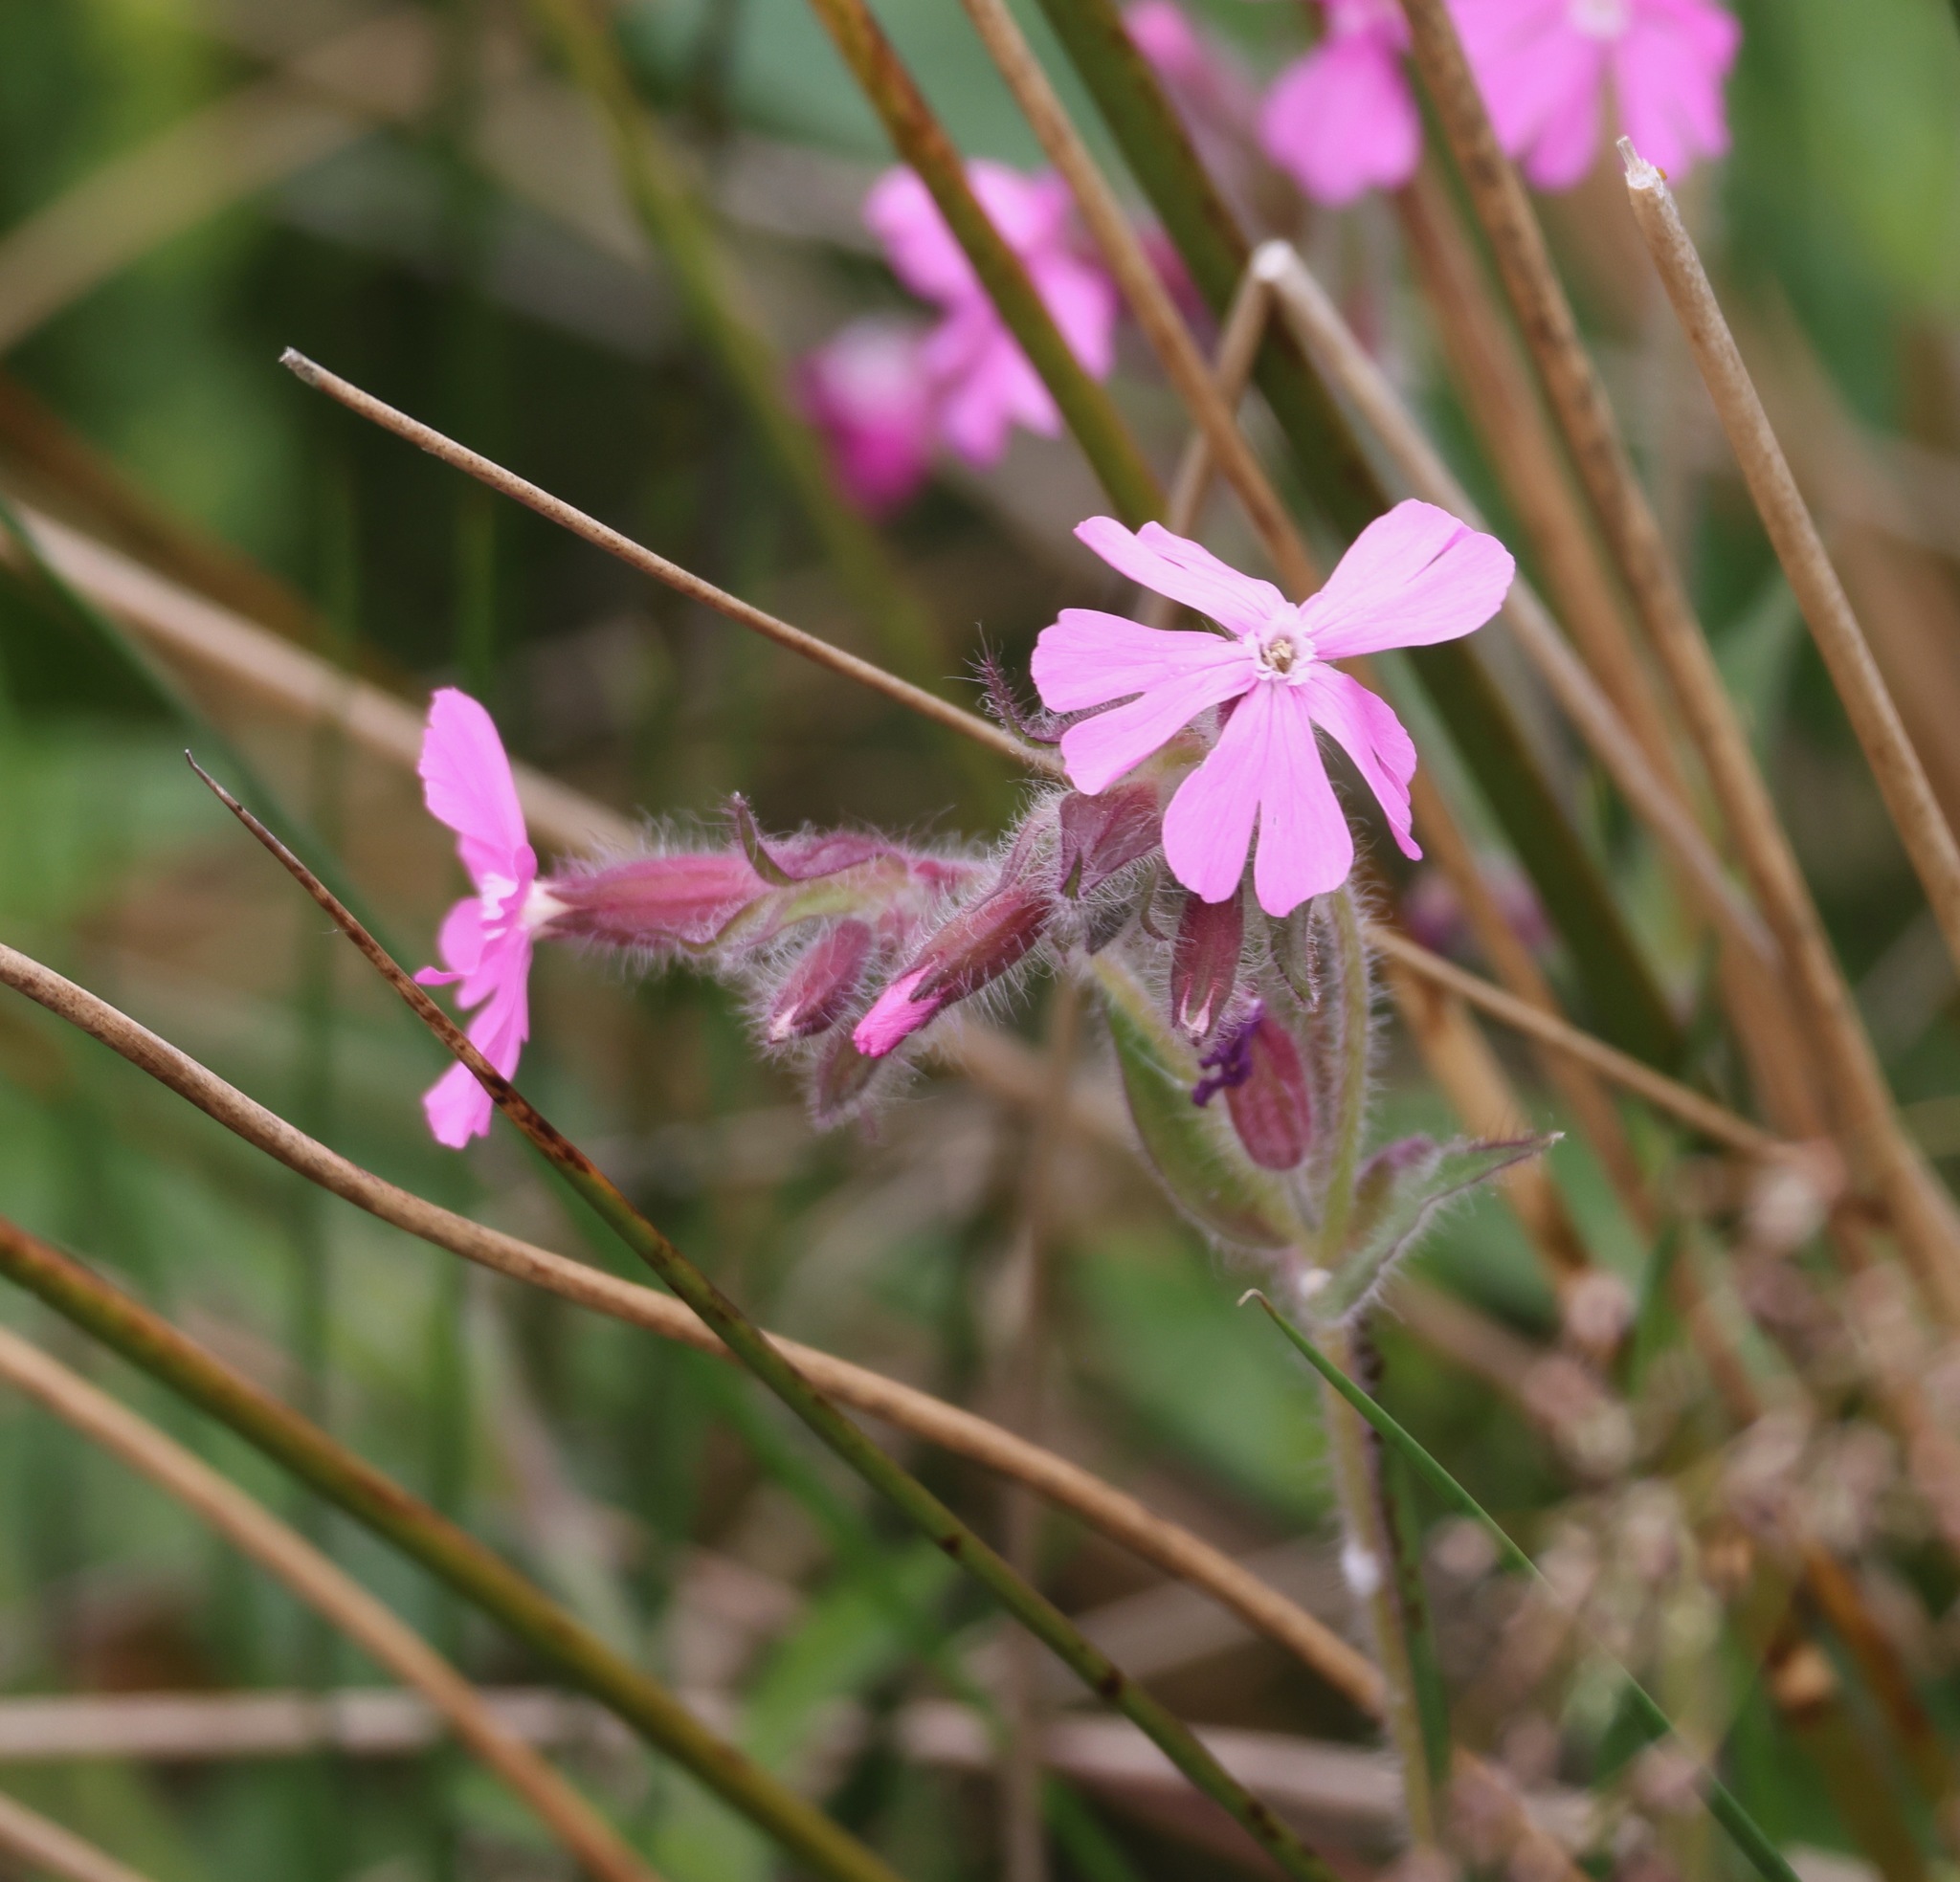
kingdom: Plantae
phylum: Tracheophyta
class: Magnoliopsida
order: Caryophyllales
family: Caryophyllaceae
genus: Silene
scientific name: Silene dioica
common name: Red campion
